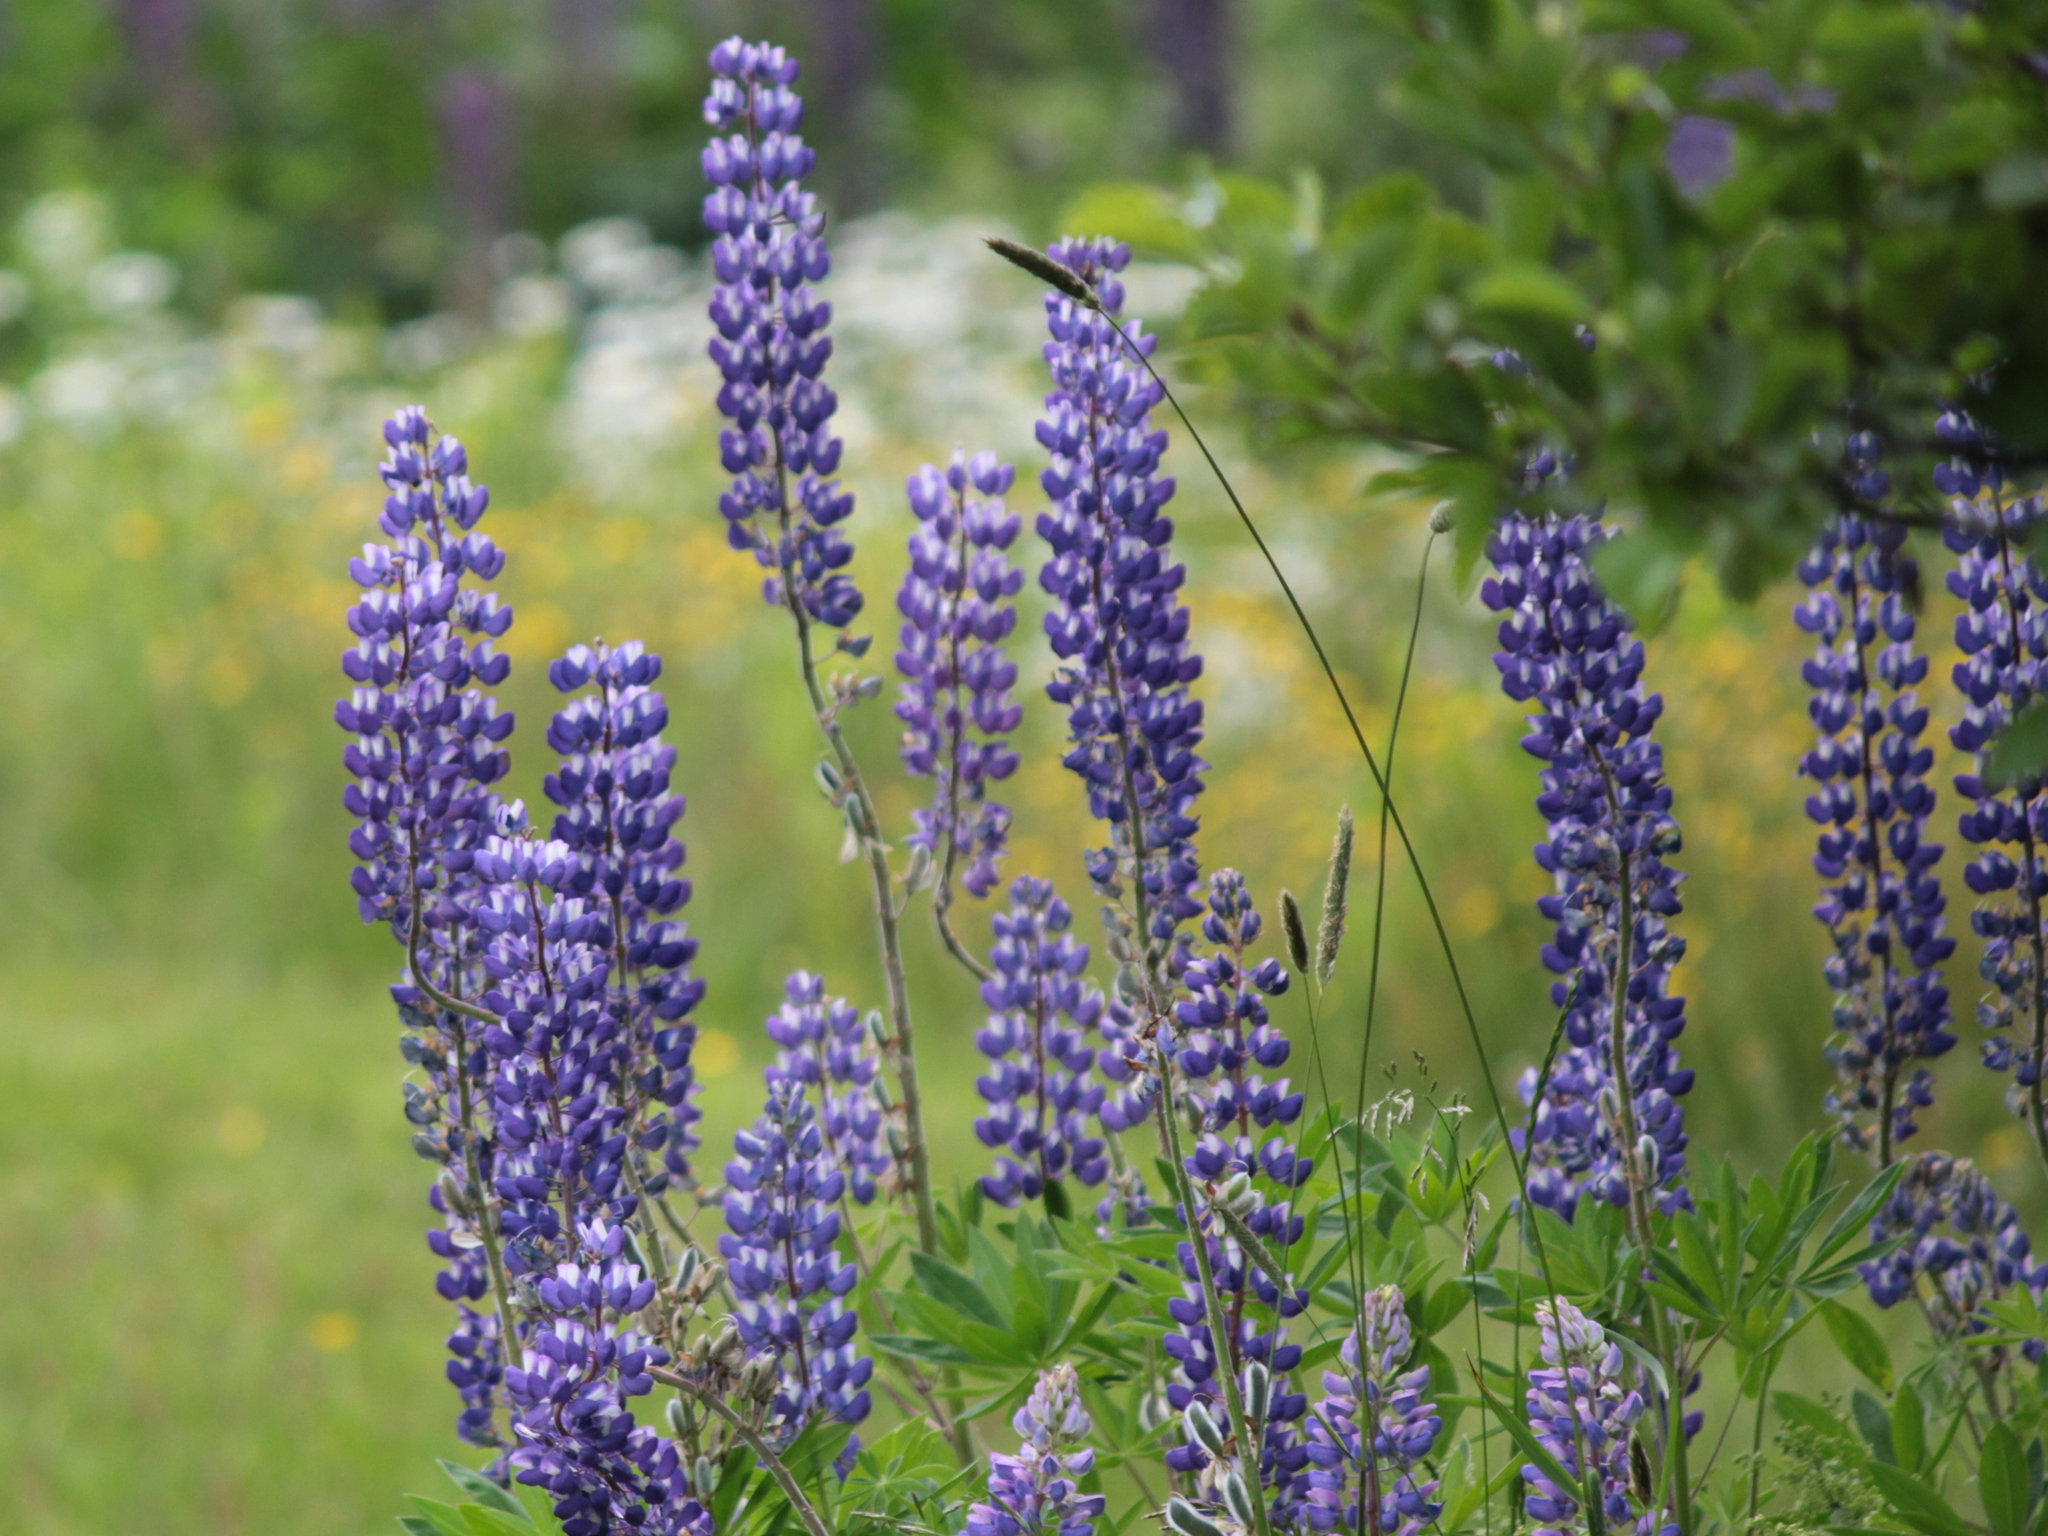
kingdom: Plantae
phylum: Tracheophyta
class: Magnoliopsida
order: Fabales
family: Fabaceae
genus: Lupinus
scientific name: Lupinus polyphyllus
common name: Garden lupin
